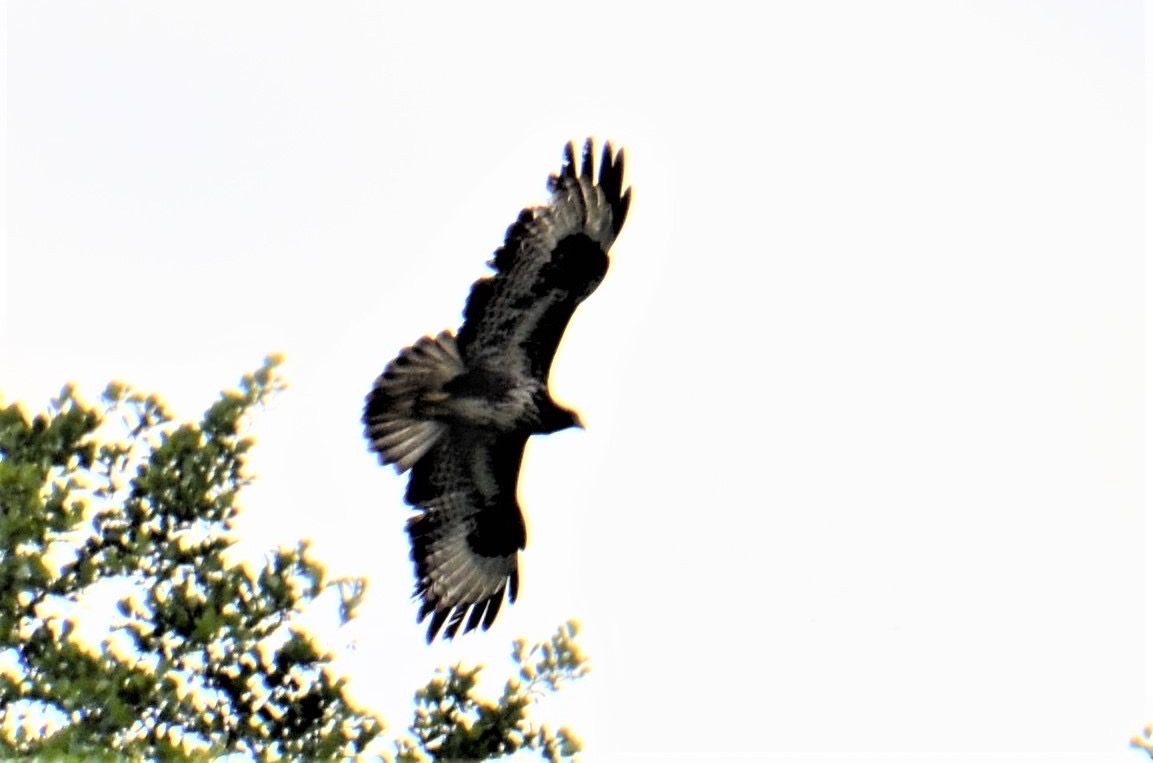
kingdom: Animalia
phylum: Chordata
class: Aves
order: Accipitriformes
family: Accipitridae
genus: Buteo
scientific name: Buteo buteo
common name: Common buzzard
